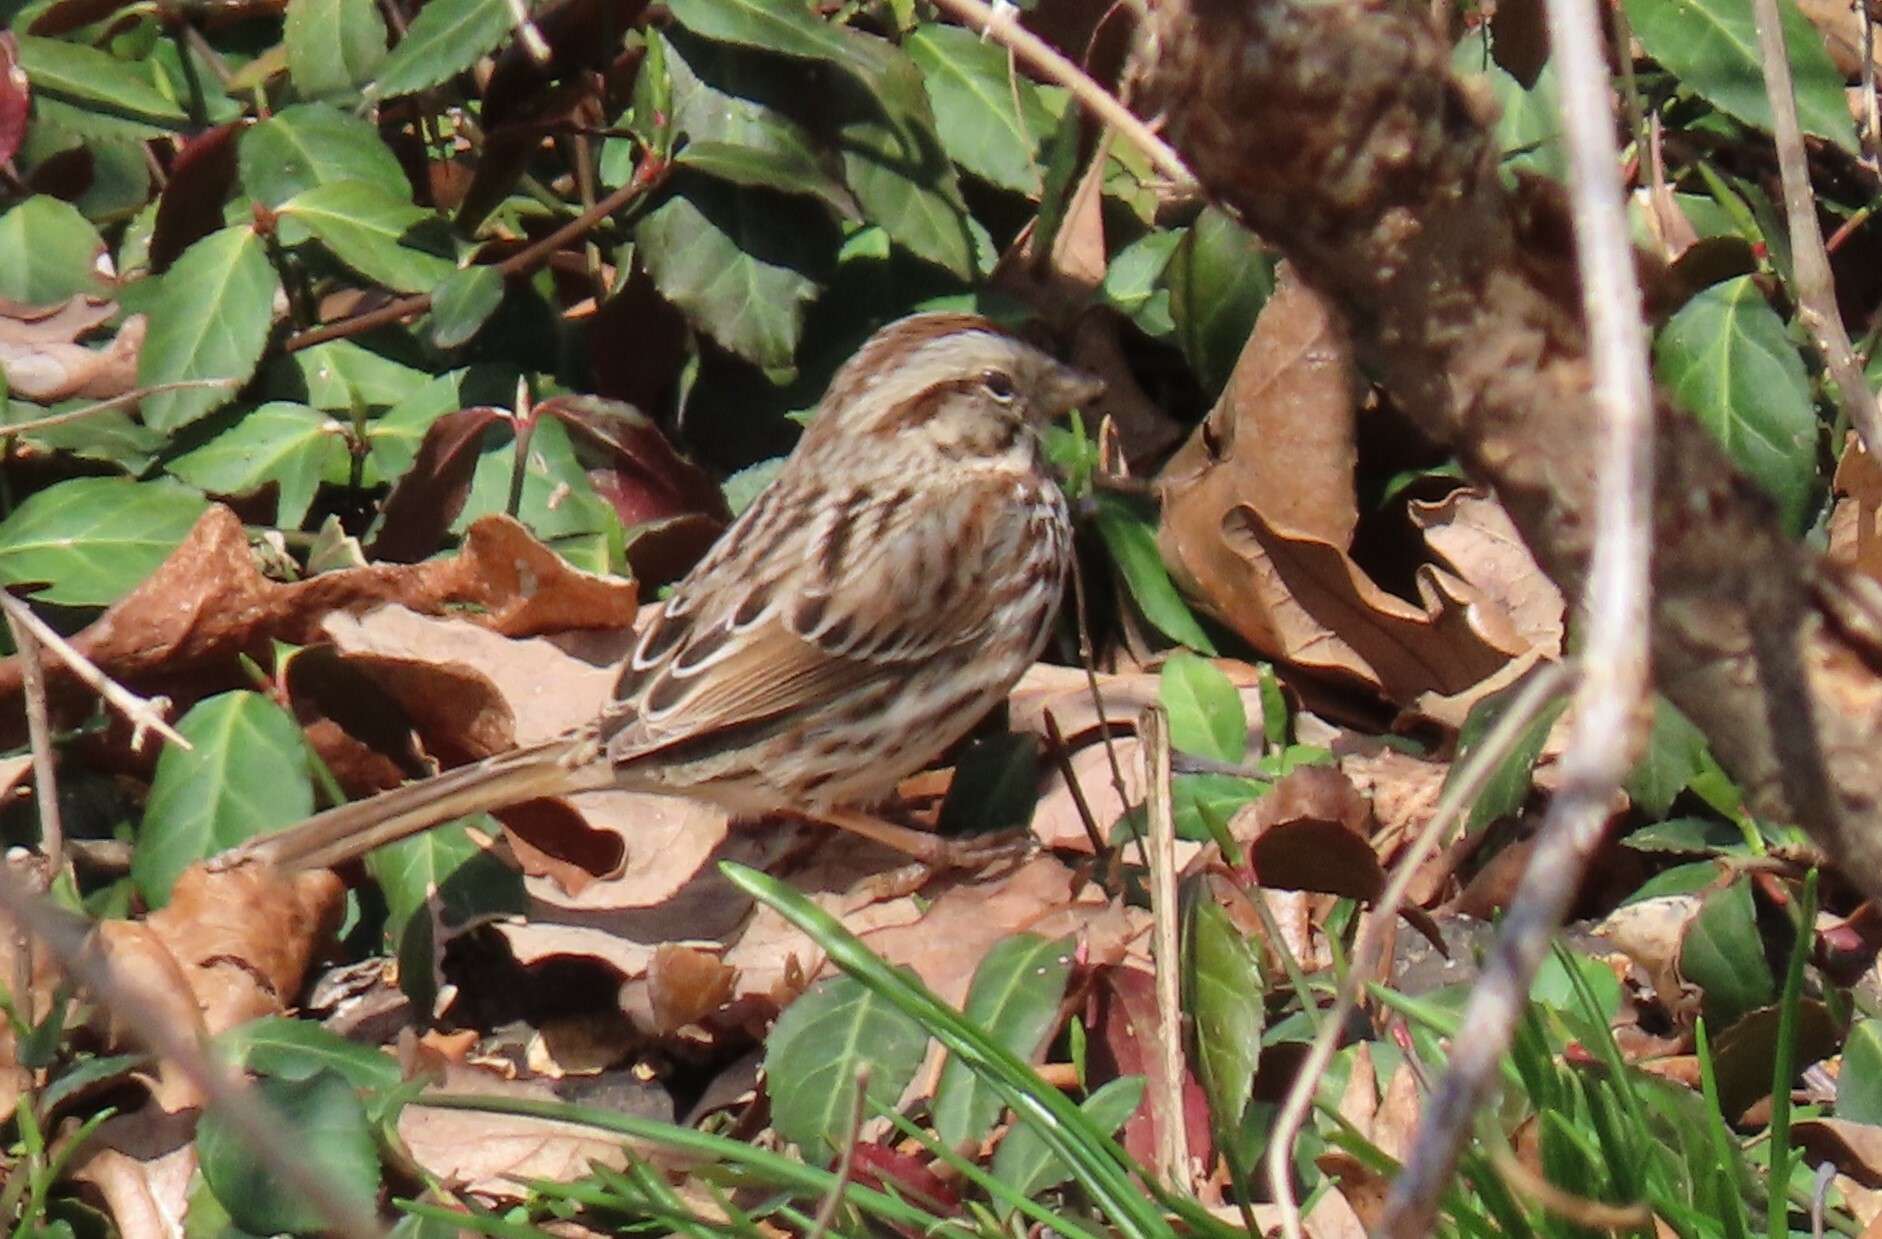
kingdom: Animalia
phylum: Chordata
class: Aves
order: Passeriformes
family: Passerellidae
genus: Melospiza
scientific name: Melospiza melodia
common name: Song sparrow
